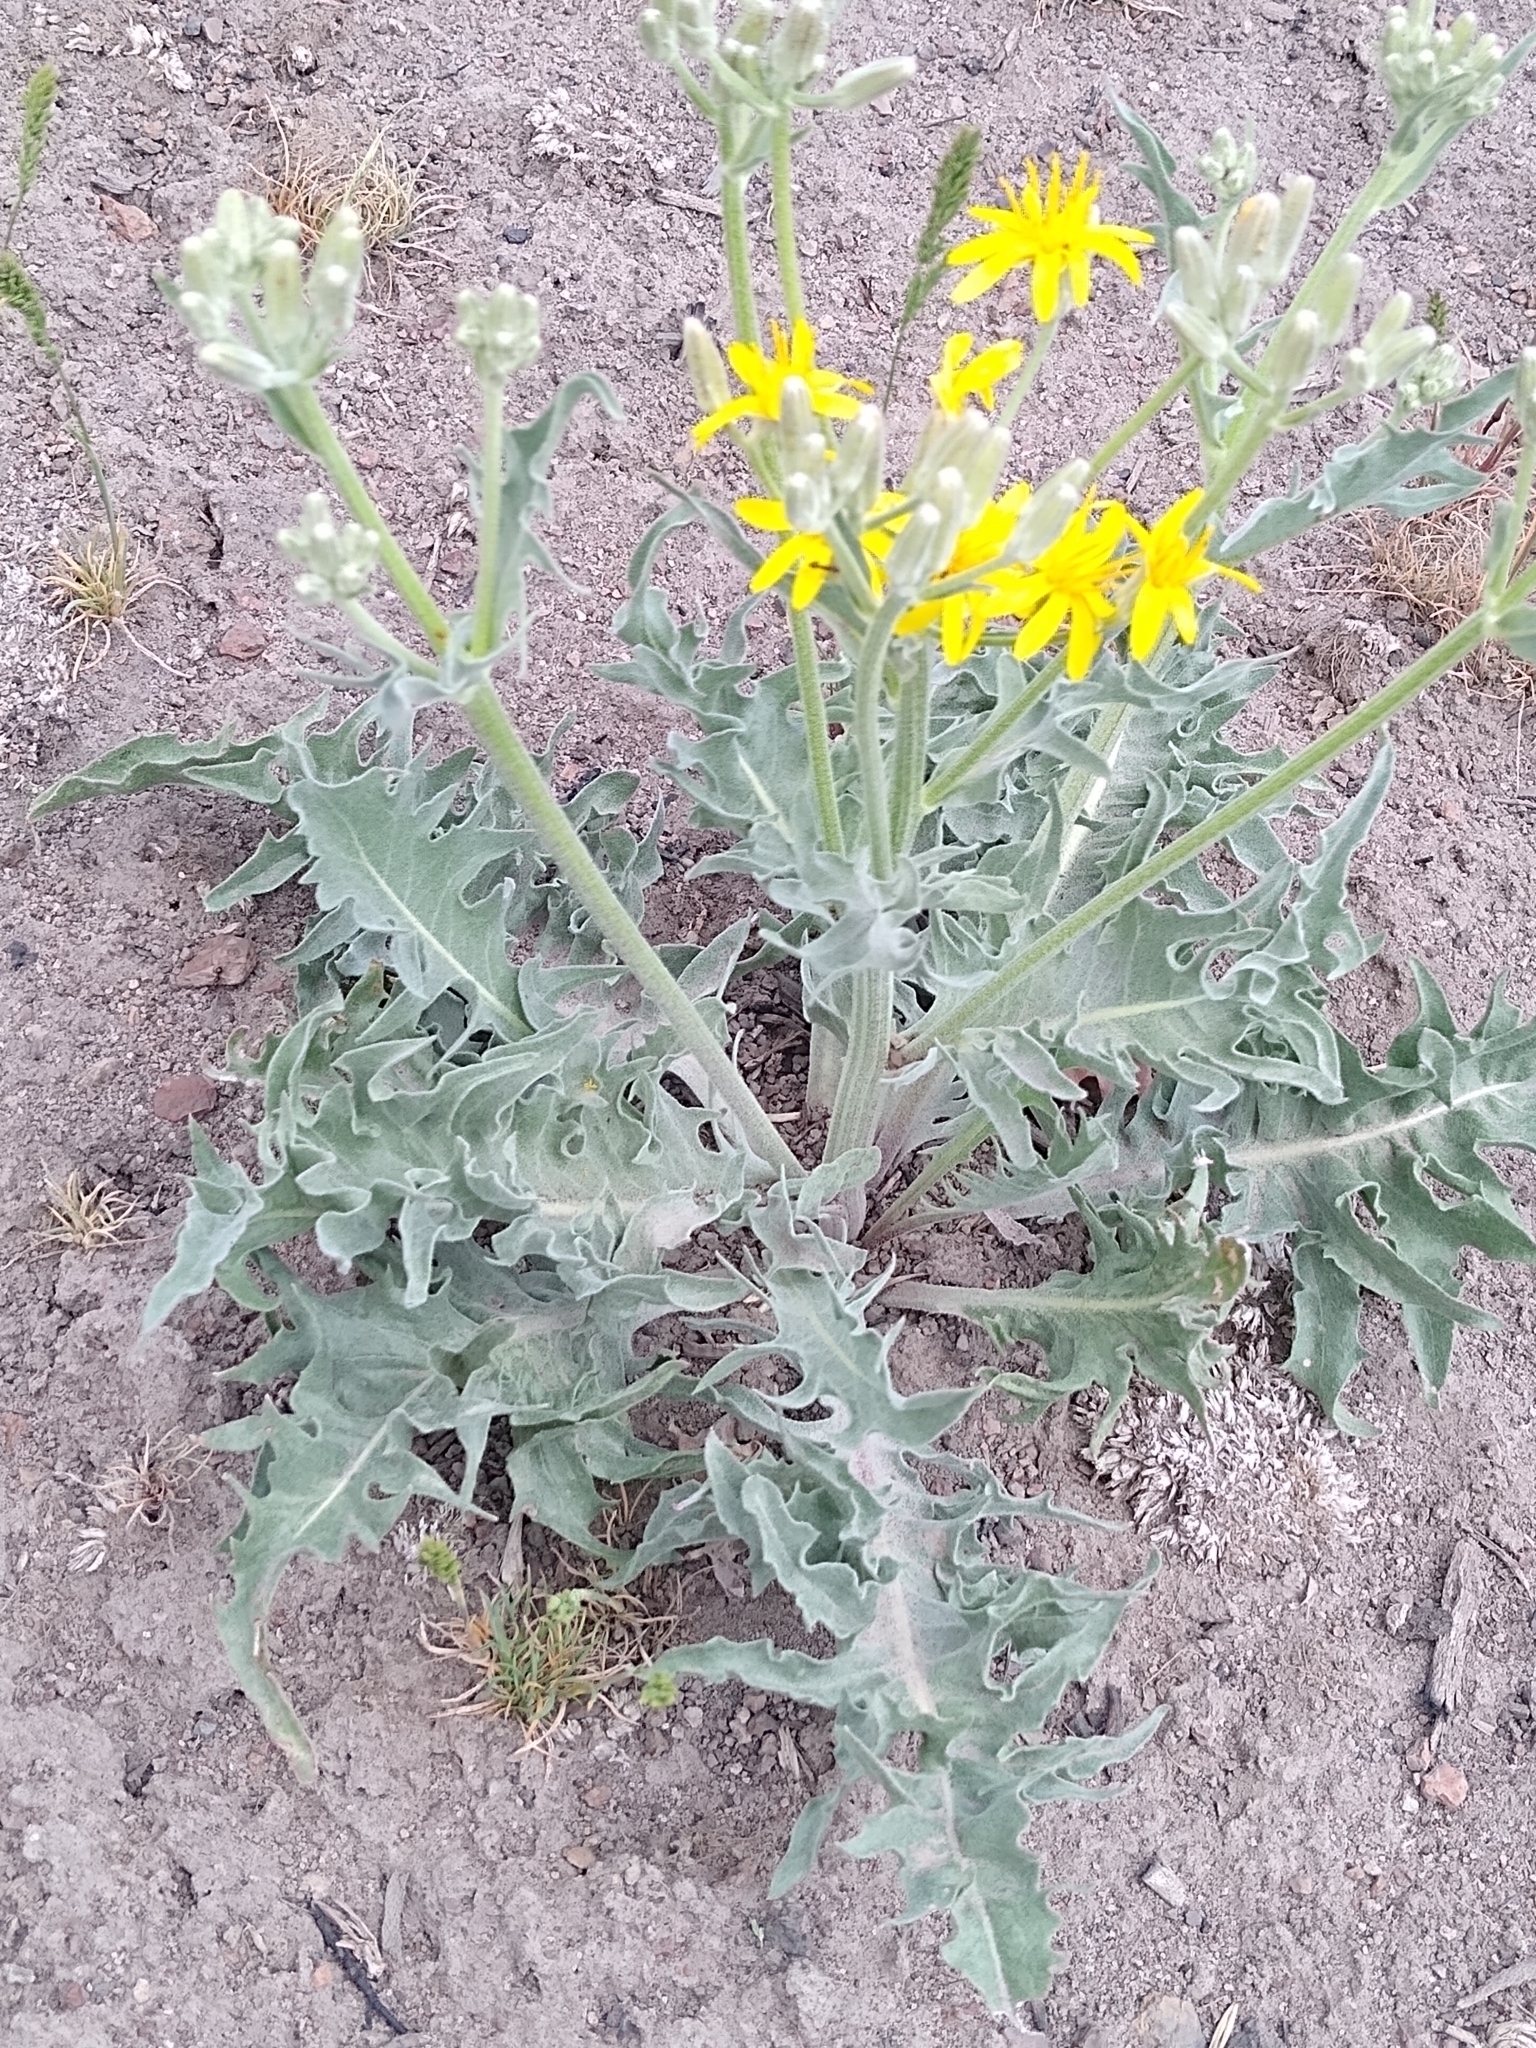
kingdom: Plantae
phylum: Tracheophyta
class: Magnoliopsida
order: Asterales
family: Asteraceae
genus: Balsamorhiza
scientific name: Balsamorhiza hookeri
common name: Hooker's balsamroot
